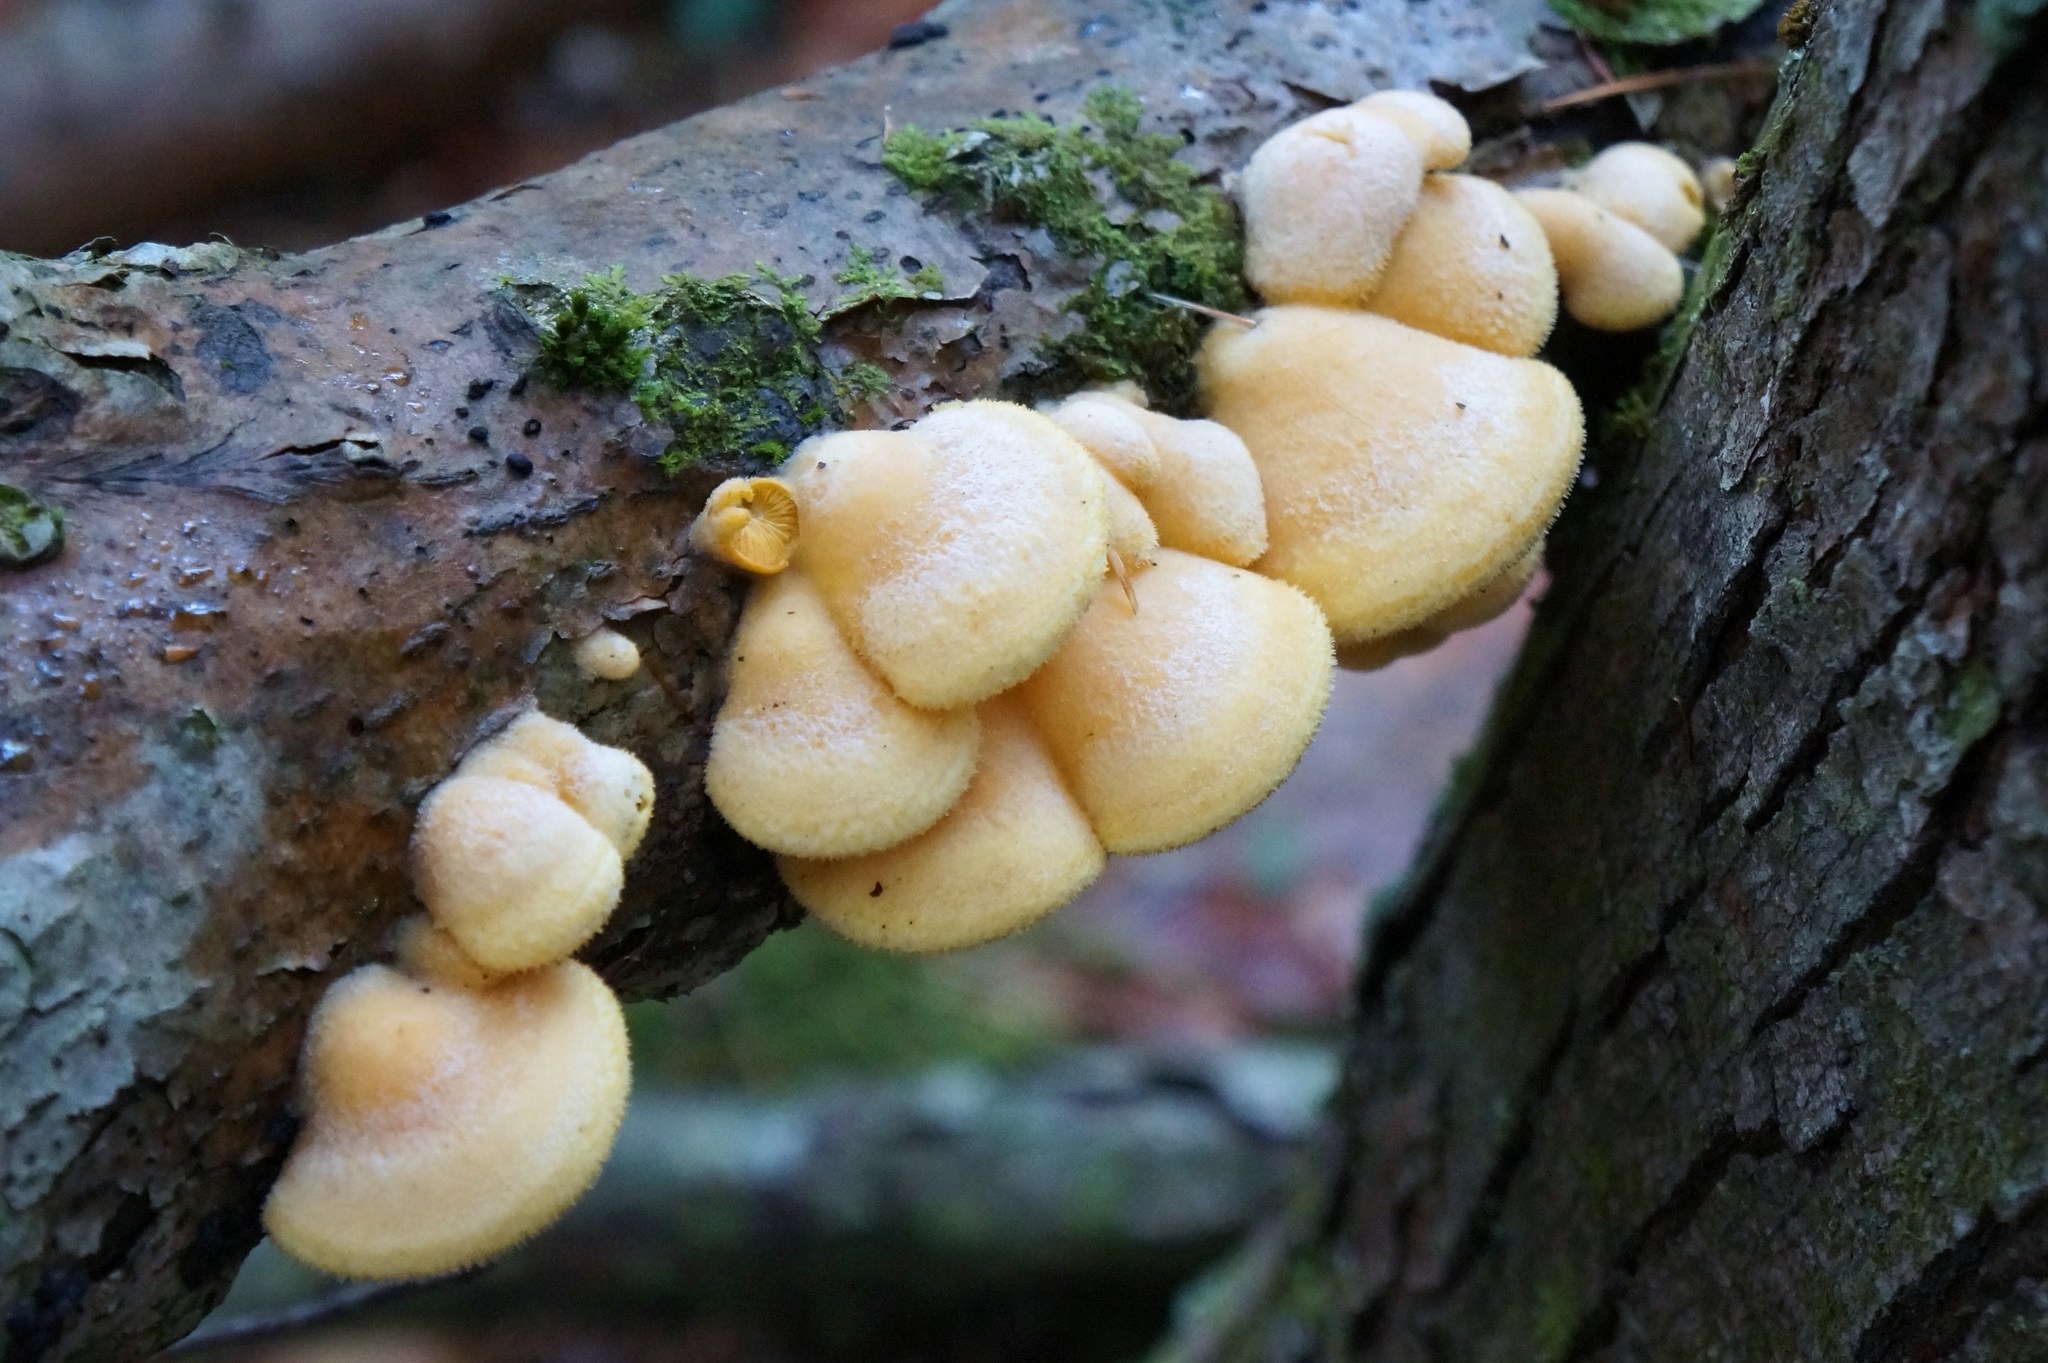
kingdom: Fungi
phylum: Basidiomycota
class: Agaricomycetes
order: Agaricales
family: Phyllotopsidaceae
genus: Phyllotopsis
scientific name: Phyllotopsis nidulans
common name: Orange mock oyster
